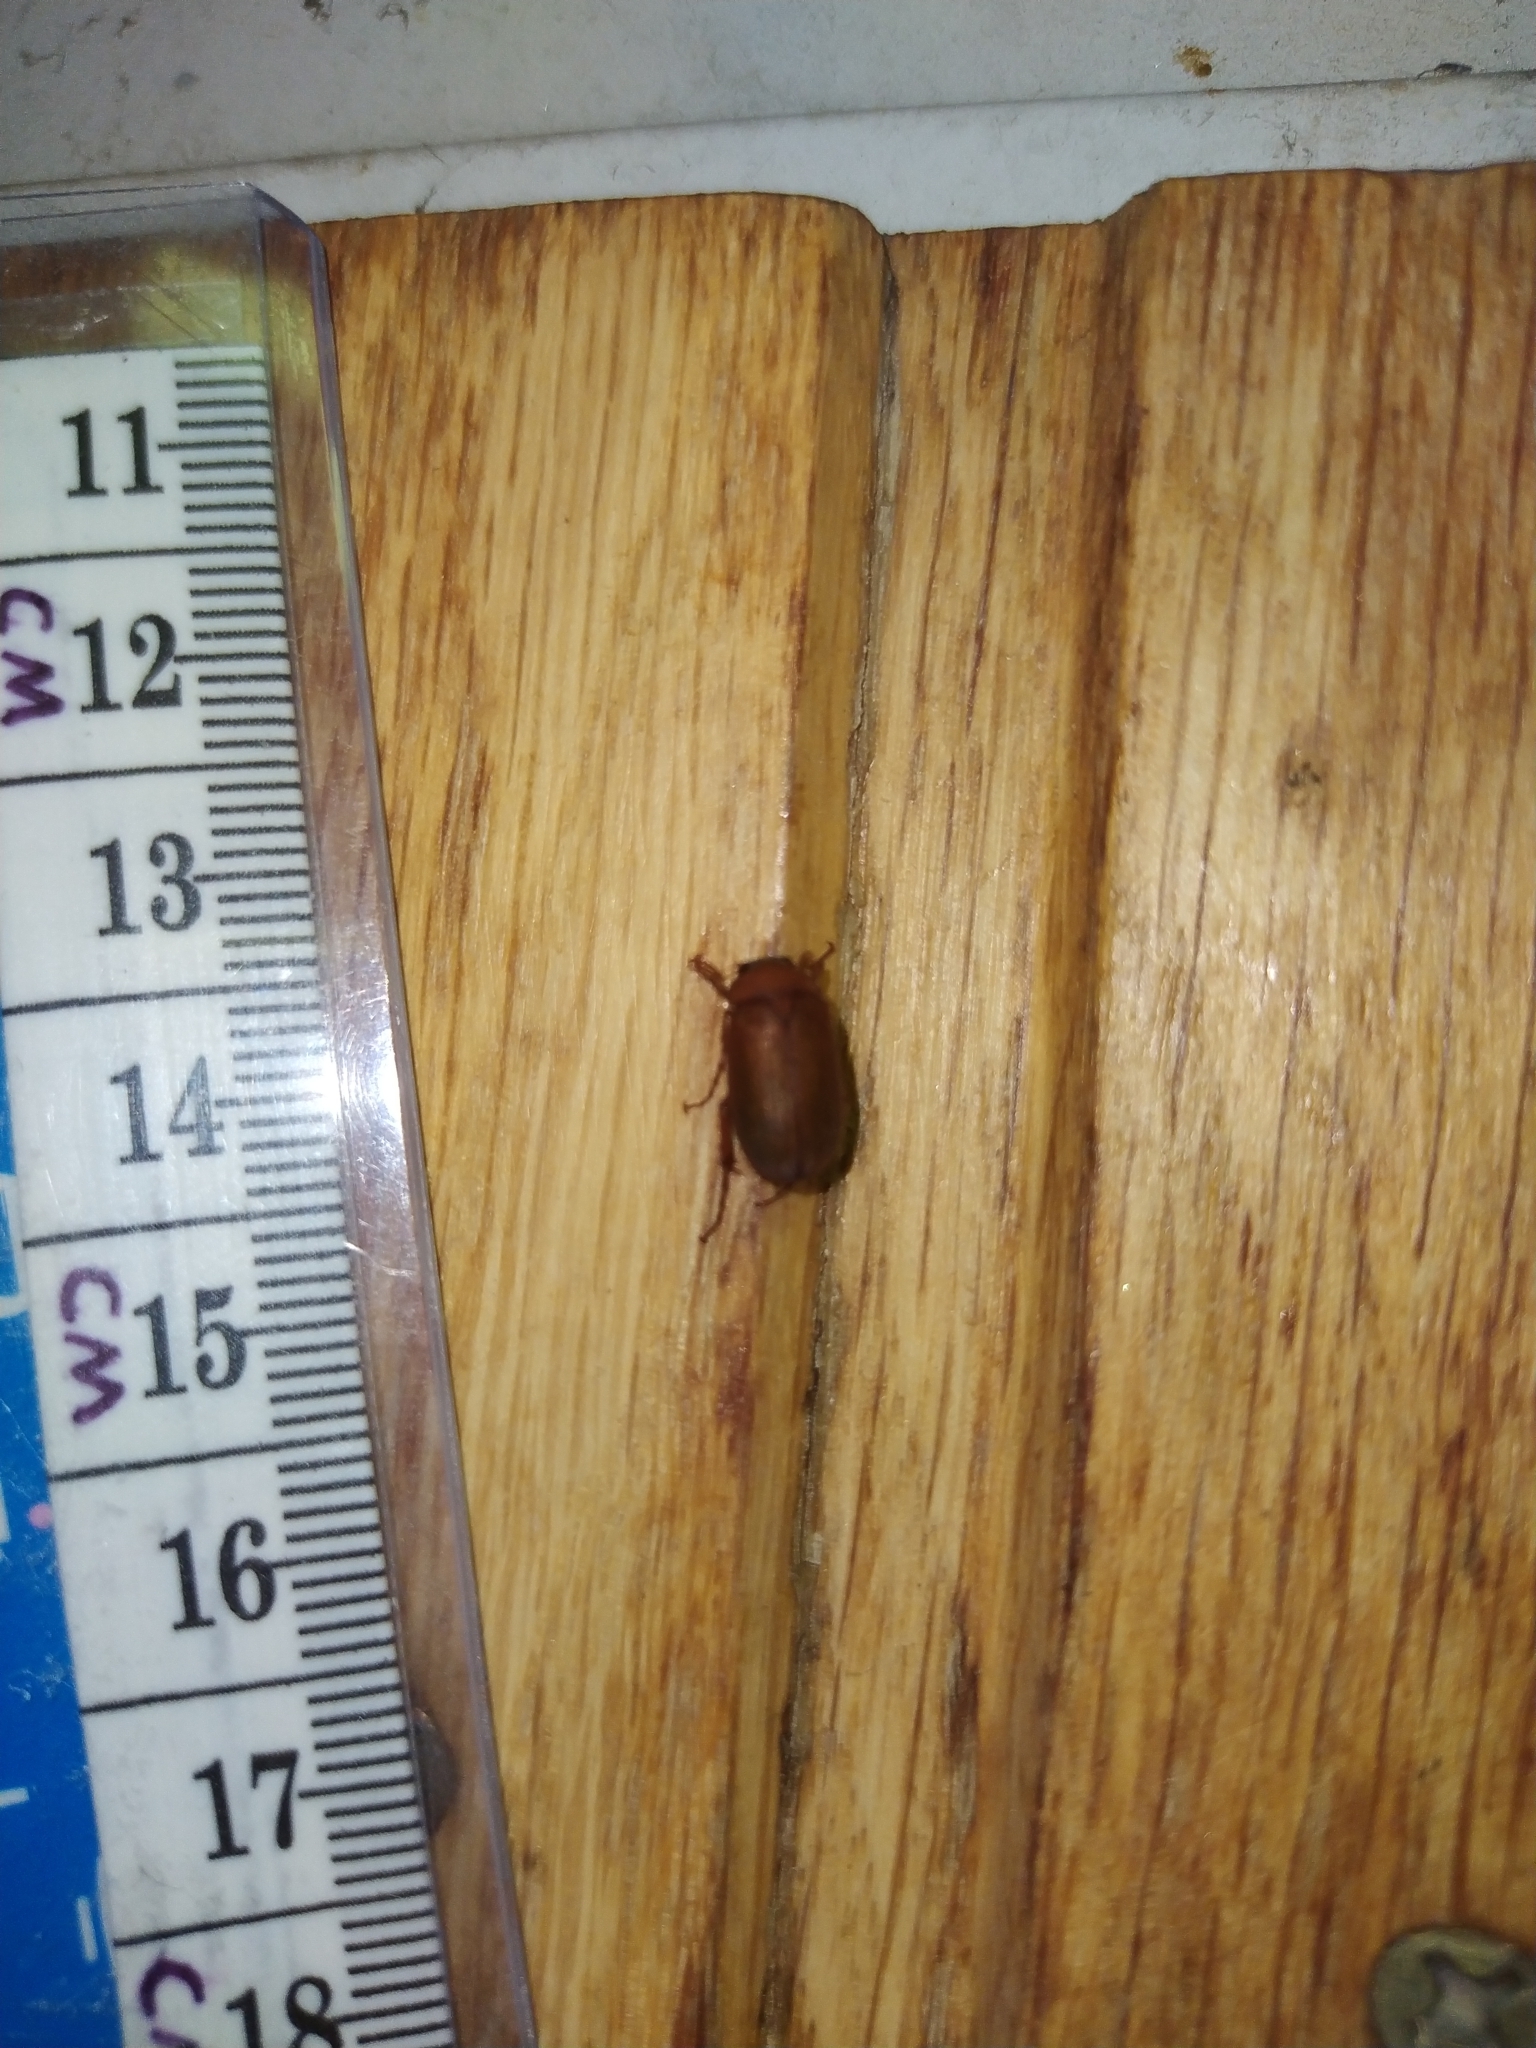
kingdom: Animalia
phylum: Arthropoda
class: Insecta
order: Coleoptera
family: Scarabaeidae
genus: Serica
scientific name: Serica brunnea
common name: Brown chafer
